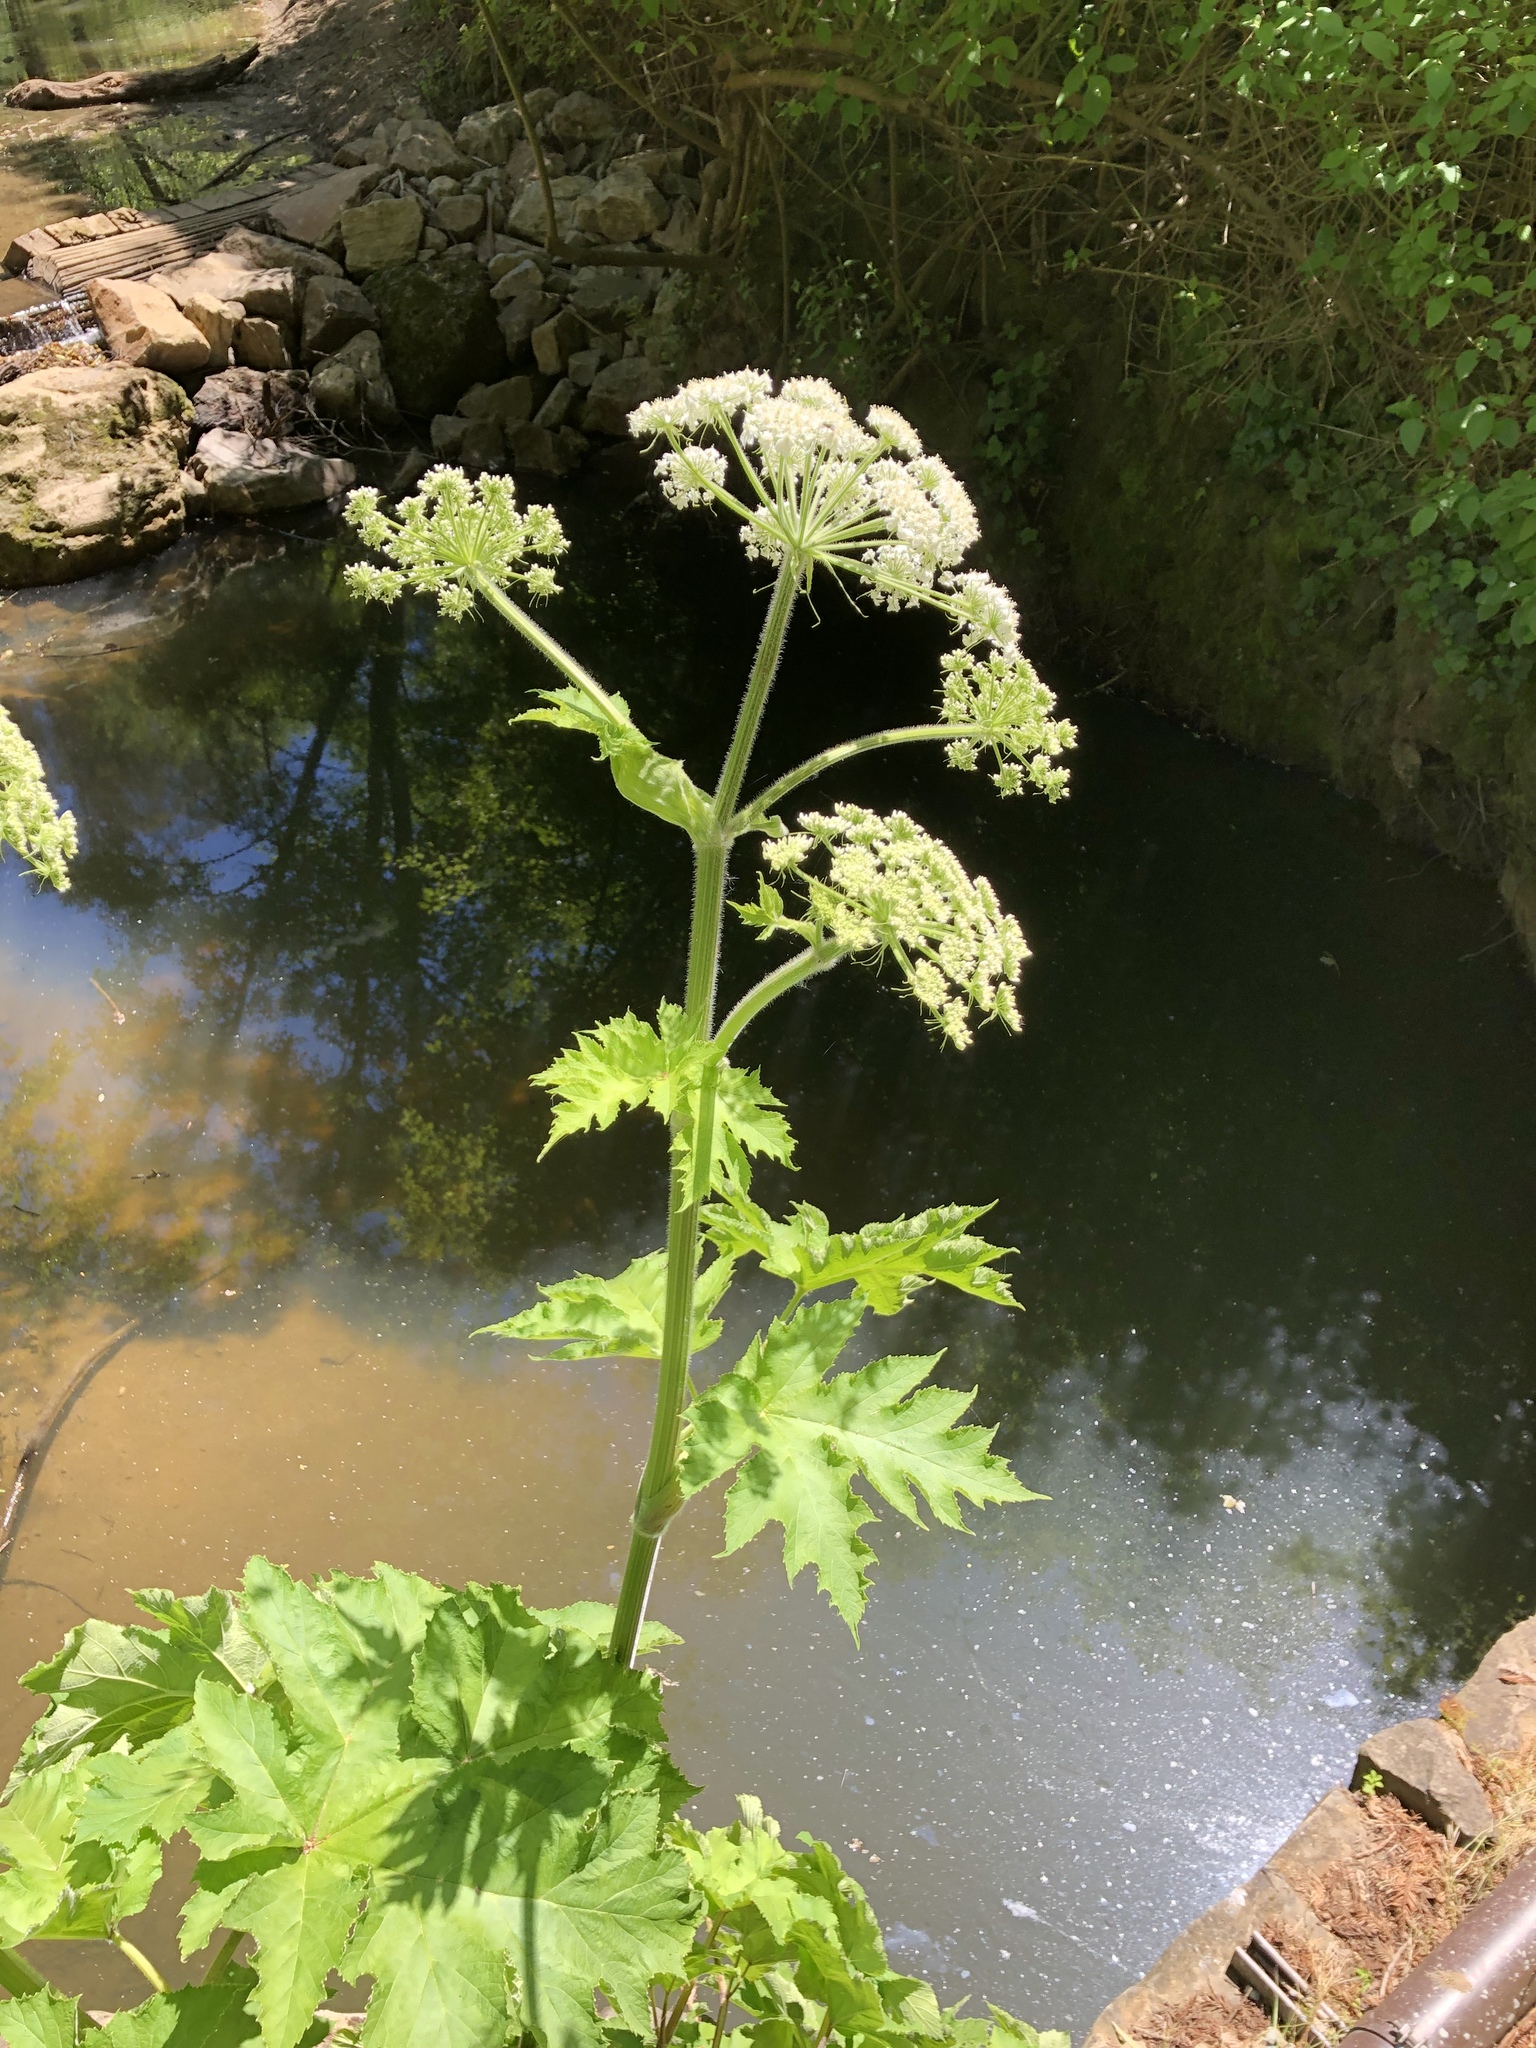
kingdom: Plantae
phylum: Tracheophyta
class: Magnoliopsida
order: Apiales
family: Apiaceae
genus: Heracleum
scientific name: Heracleum maximum
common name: American cow parsnip
